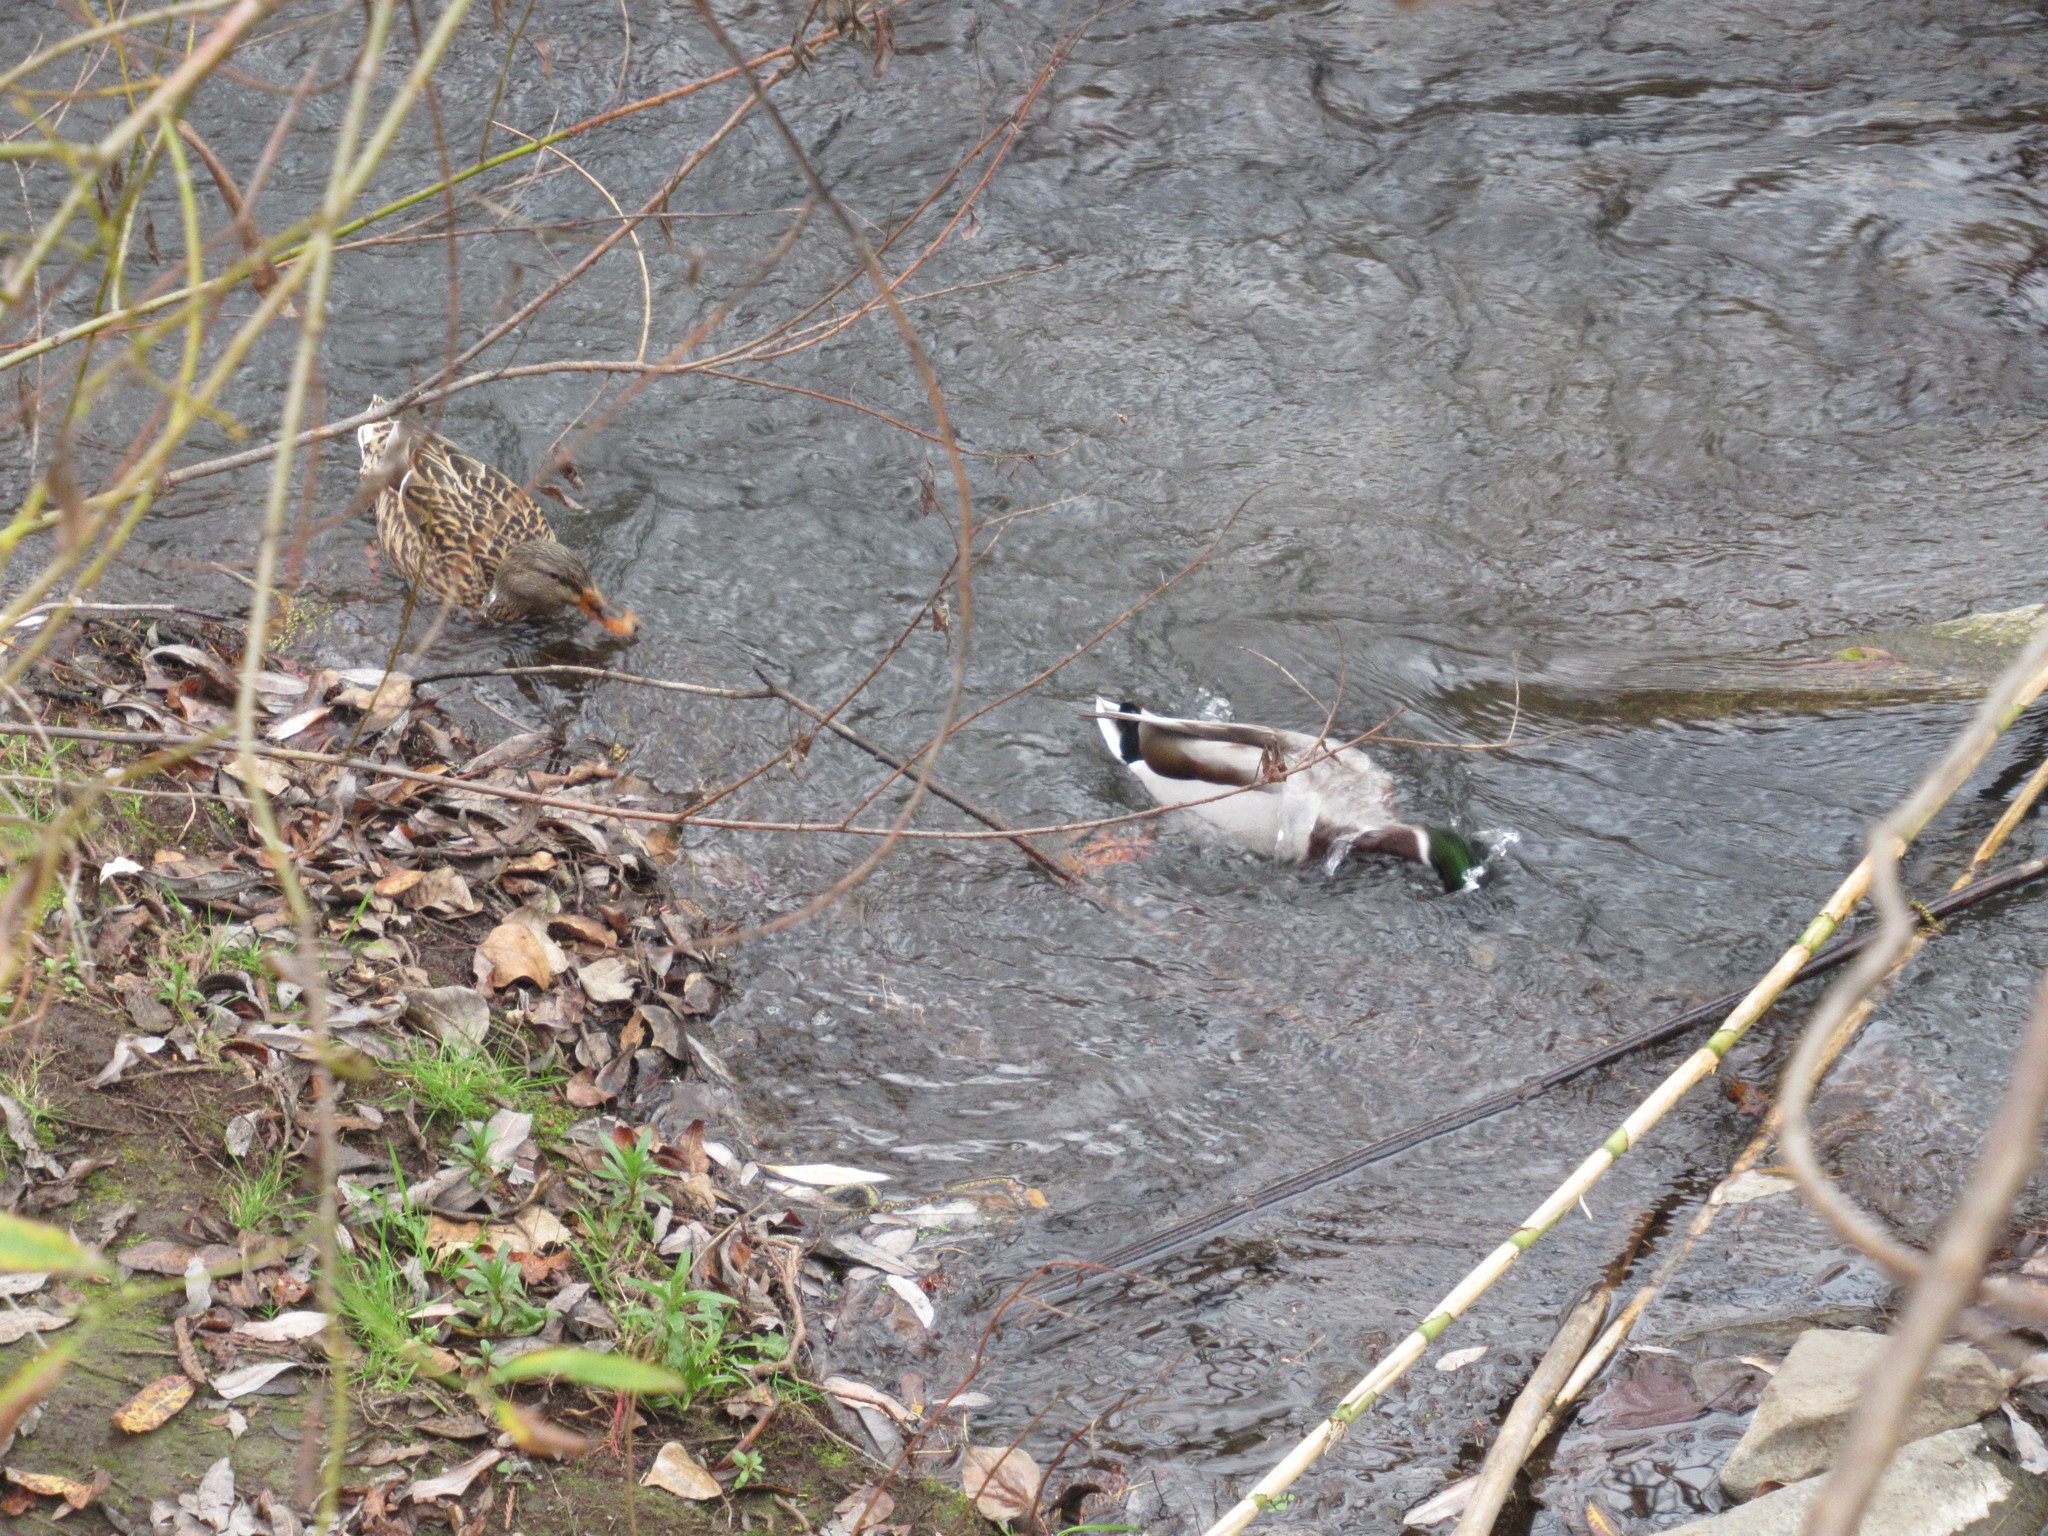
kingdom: Animalia
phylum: Chordata
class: Aves
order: Anseriformes
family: Anatidae
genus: Anas
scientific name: Anas platyrhynchos
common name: Mallard
